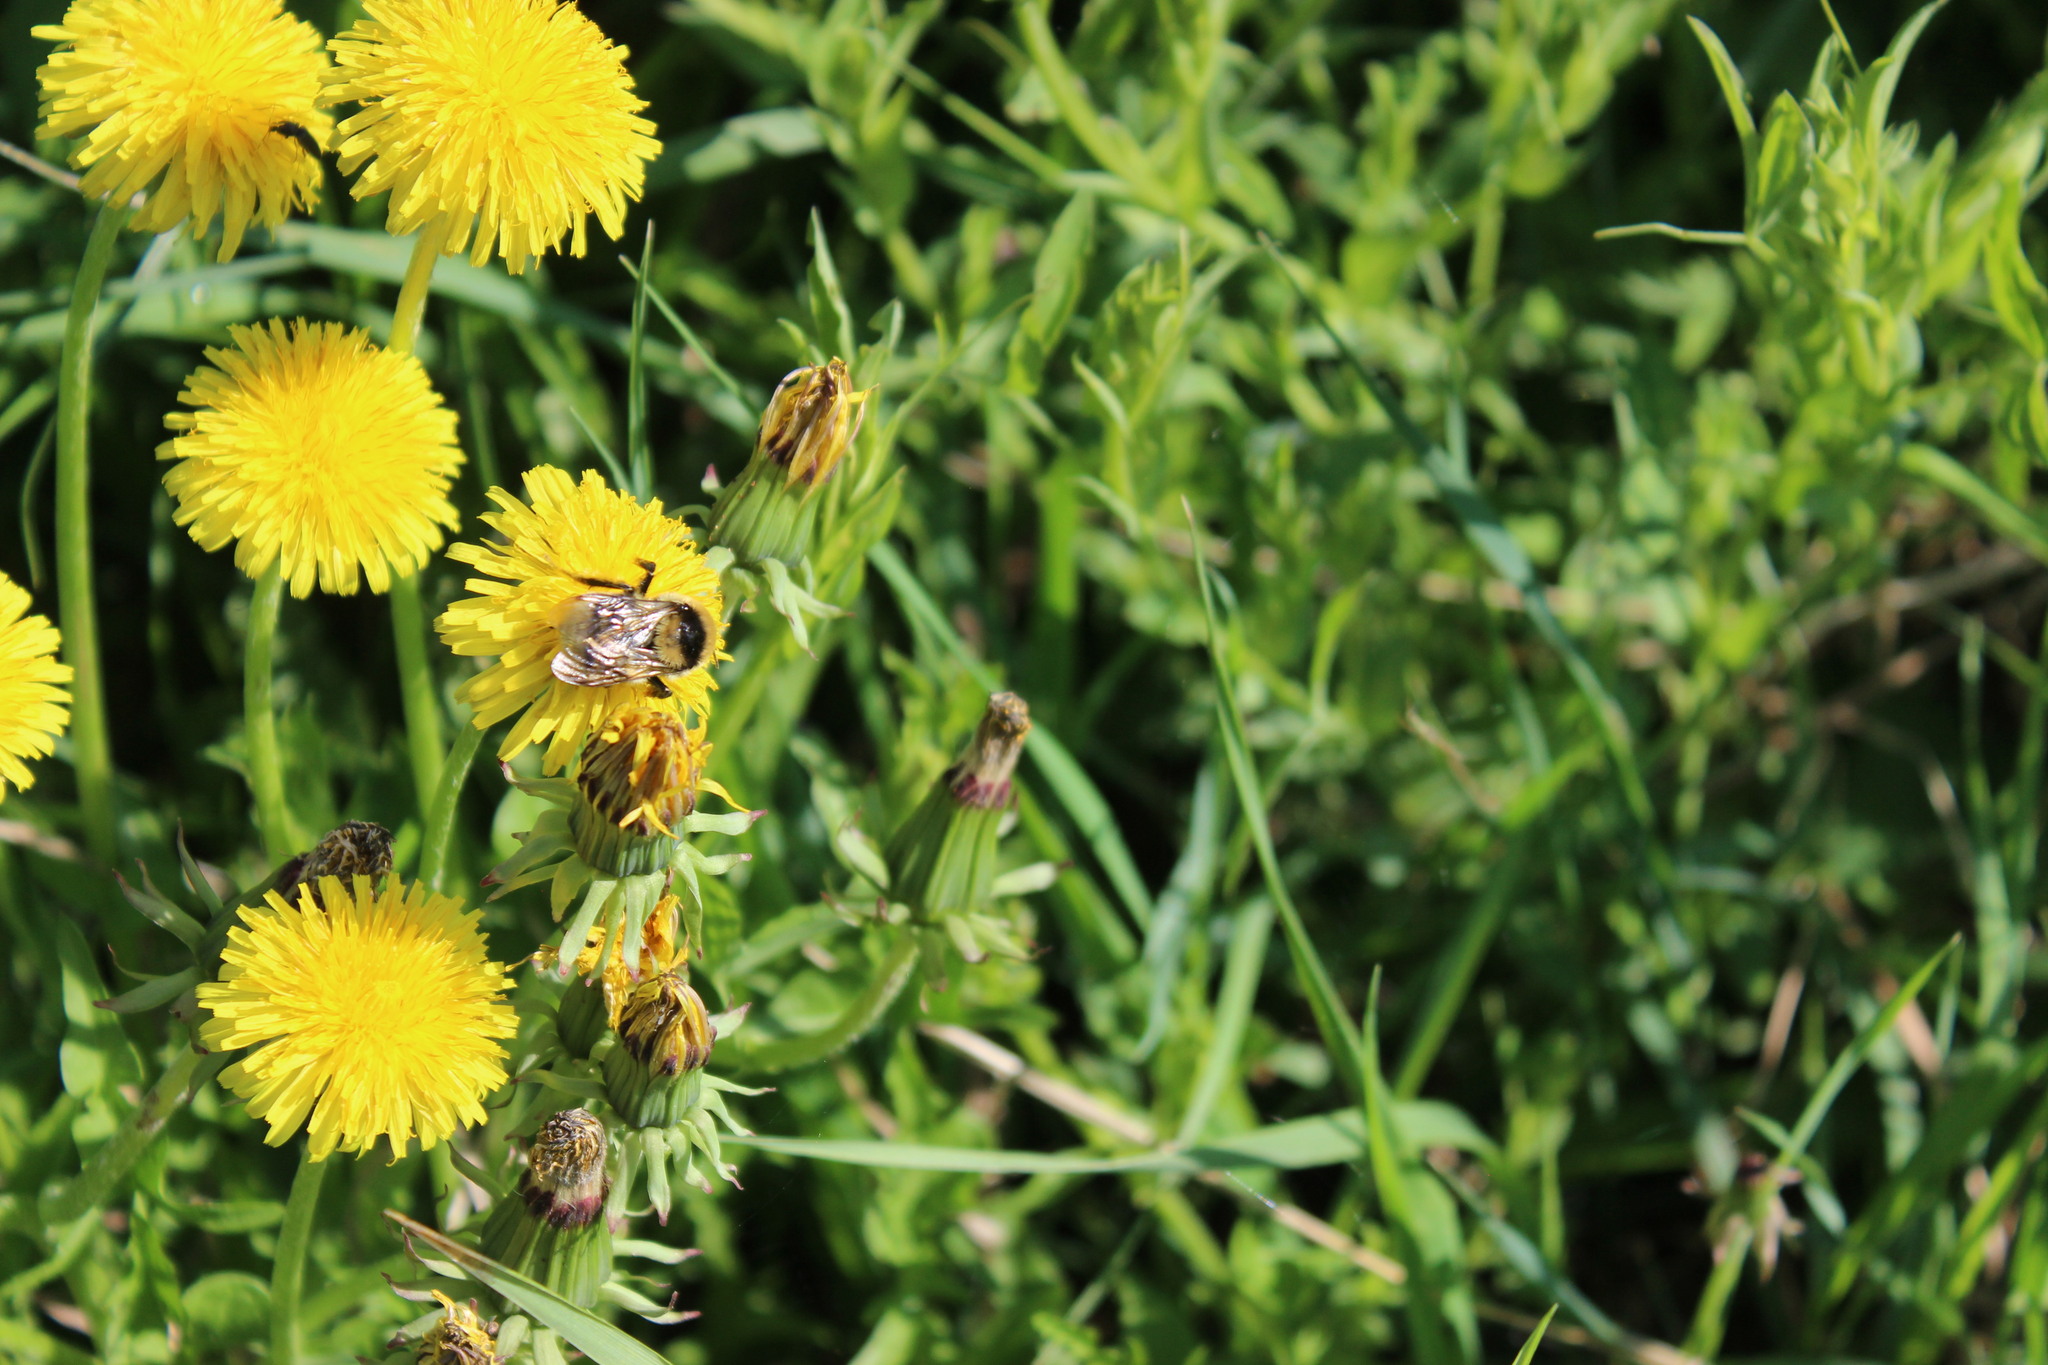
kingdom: Animalia
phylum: Arthropoda
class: Insecta
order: Hymenoptera
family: Apidae
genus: Bombus
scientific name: Bombus semenoviellus
